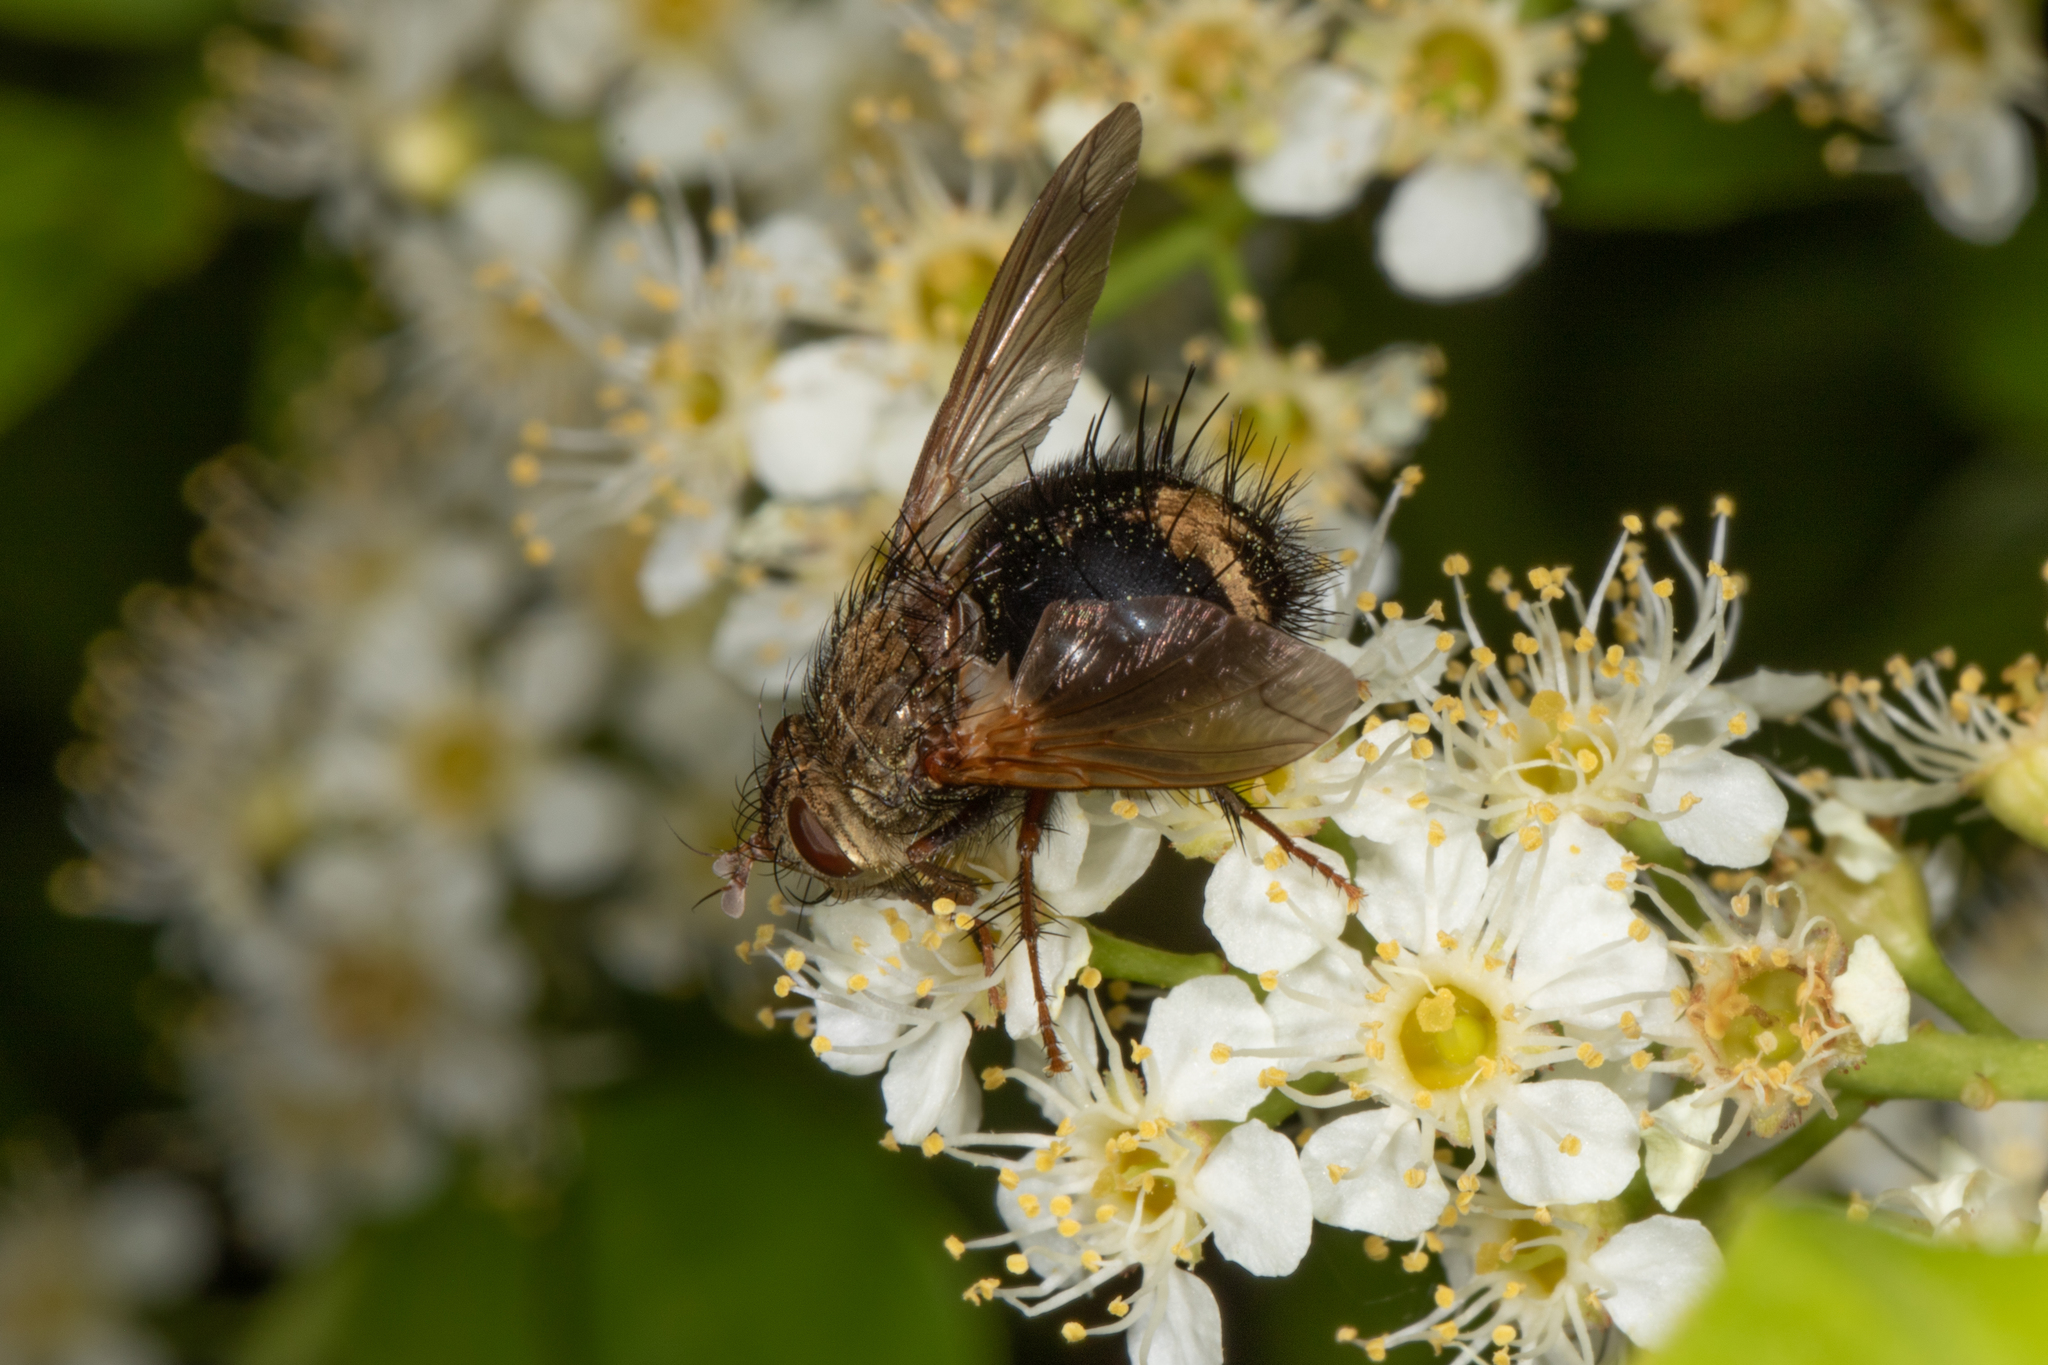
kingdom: Animalia
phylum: Arthropoda
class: Insecta
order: Diptera
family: Tachinidae
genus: Epalpus
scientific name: Epalpus signifer
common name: Early tachinid fly
